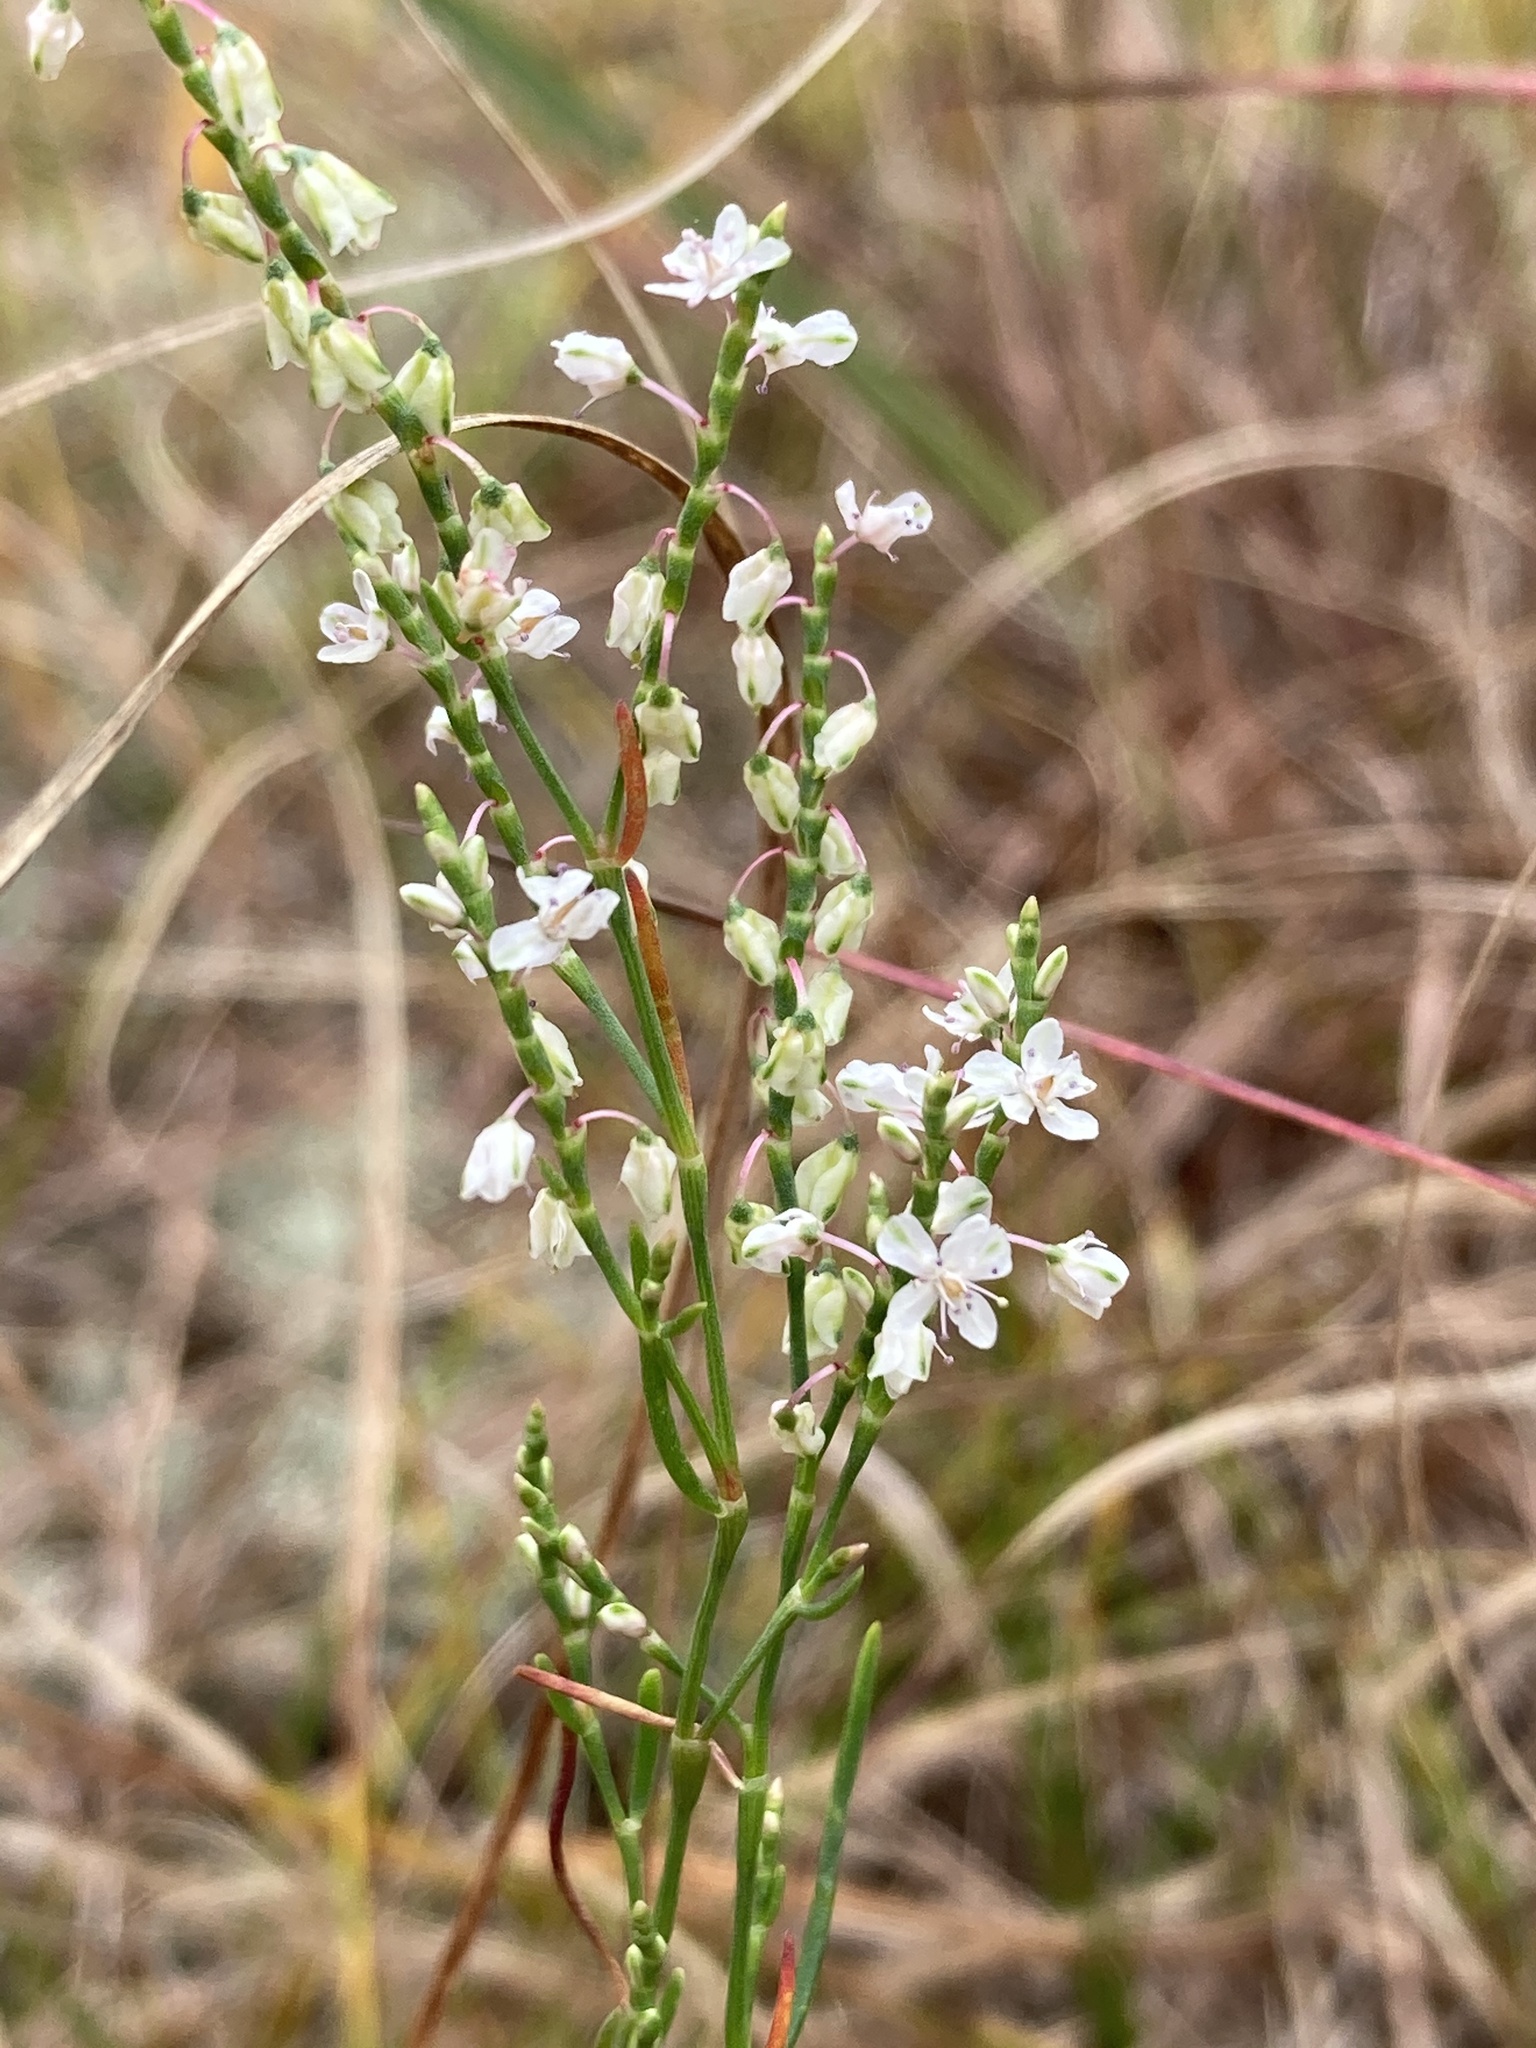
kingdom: Plantae
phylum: Tracheophyta
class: Magnoliopsida
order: Caryophyllales
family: Polygonaceae
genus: Polygonella
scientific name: Polygonella articulata
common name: Coastal jointweed
